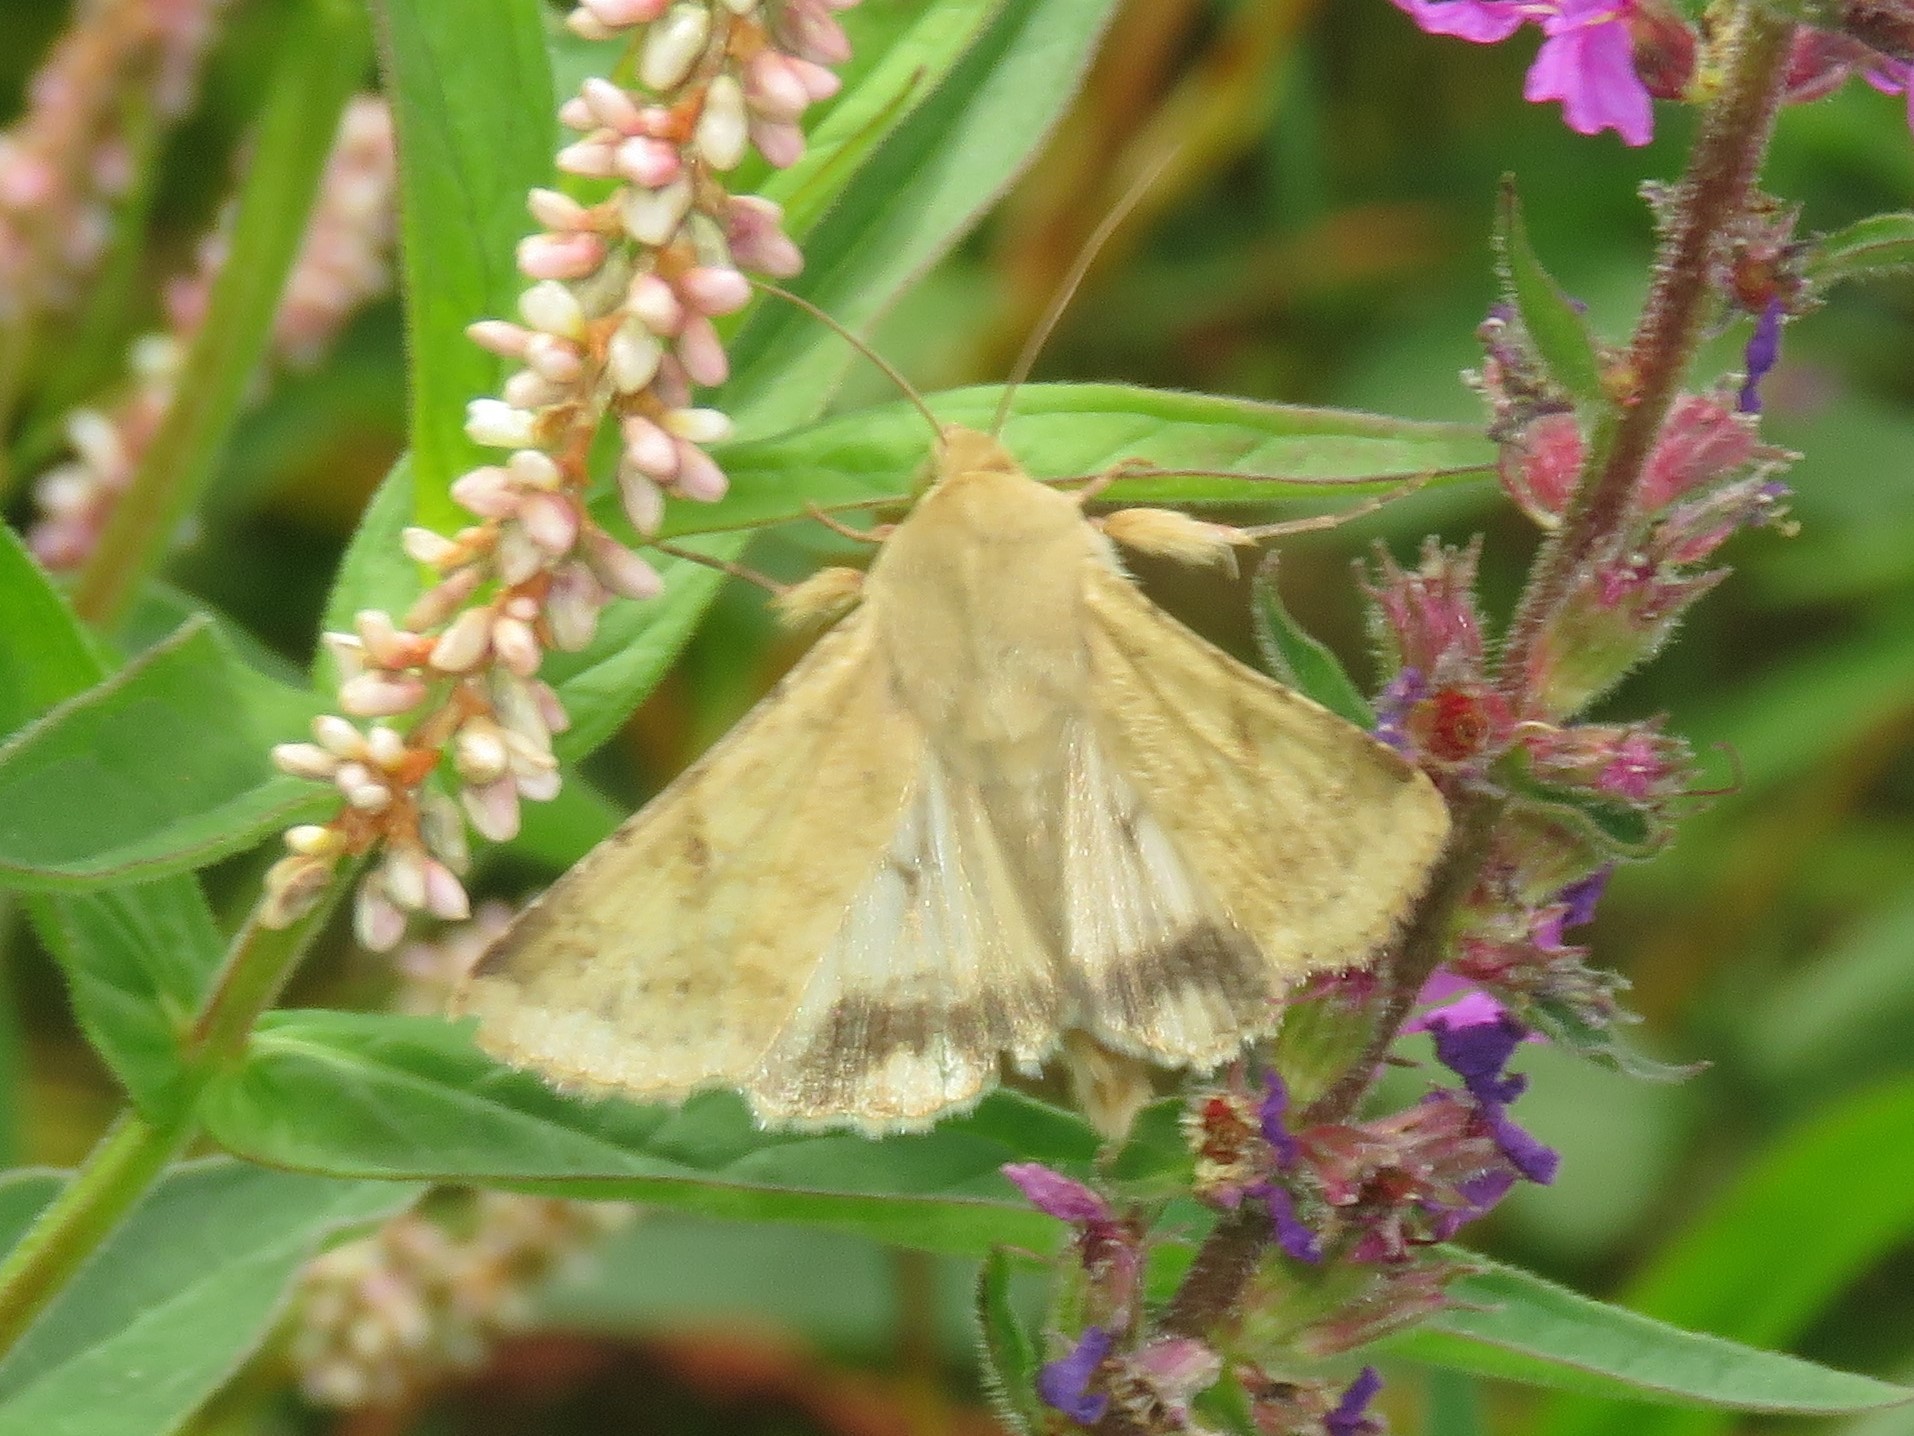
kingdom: Animalia
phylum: Arthropoda
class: Insecta
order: Lepidoptera
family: Noctuidae
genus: Helicoverpa
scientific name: Helicoverpa zea
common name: Bollworm
